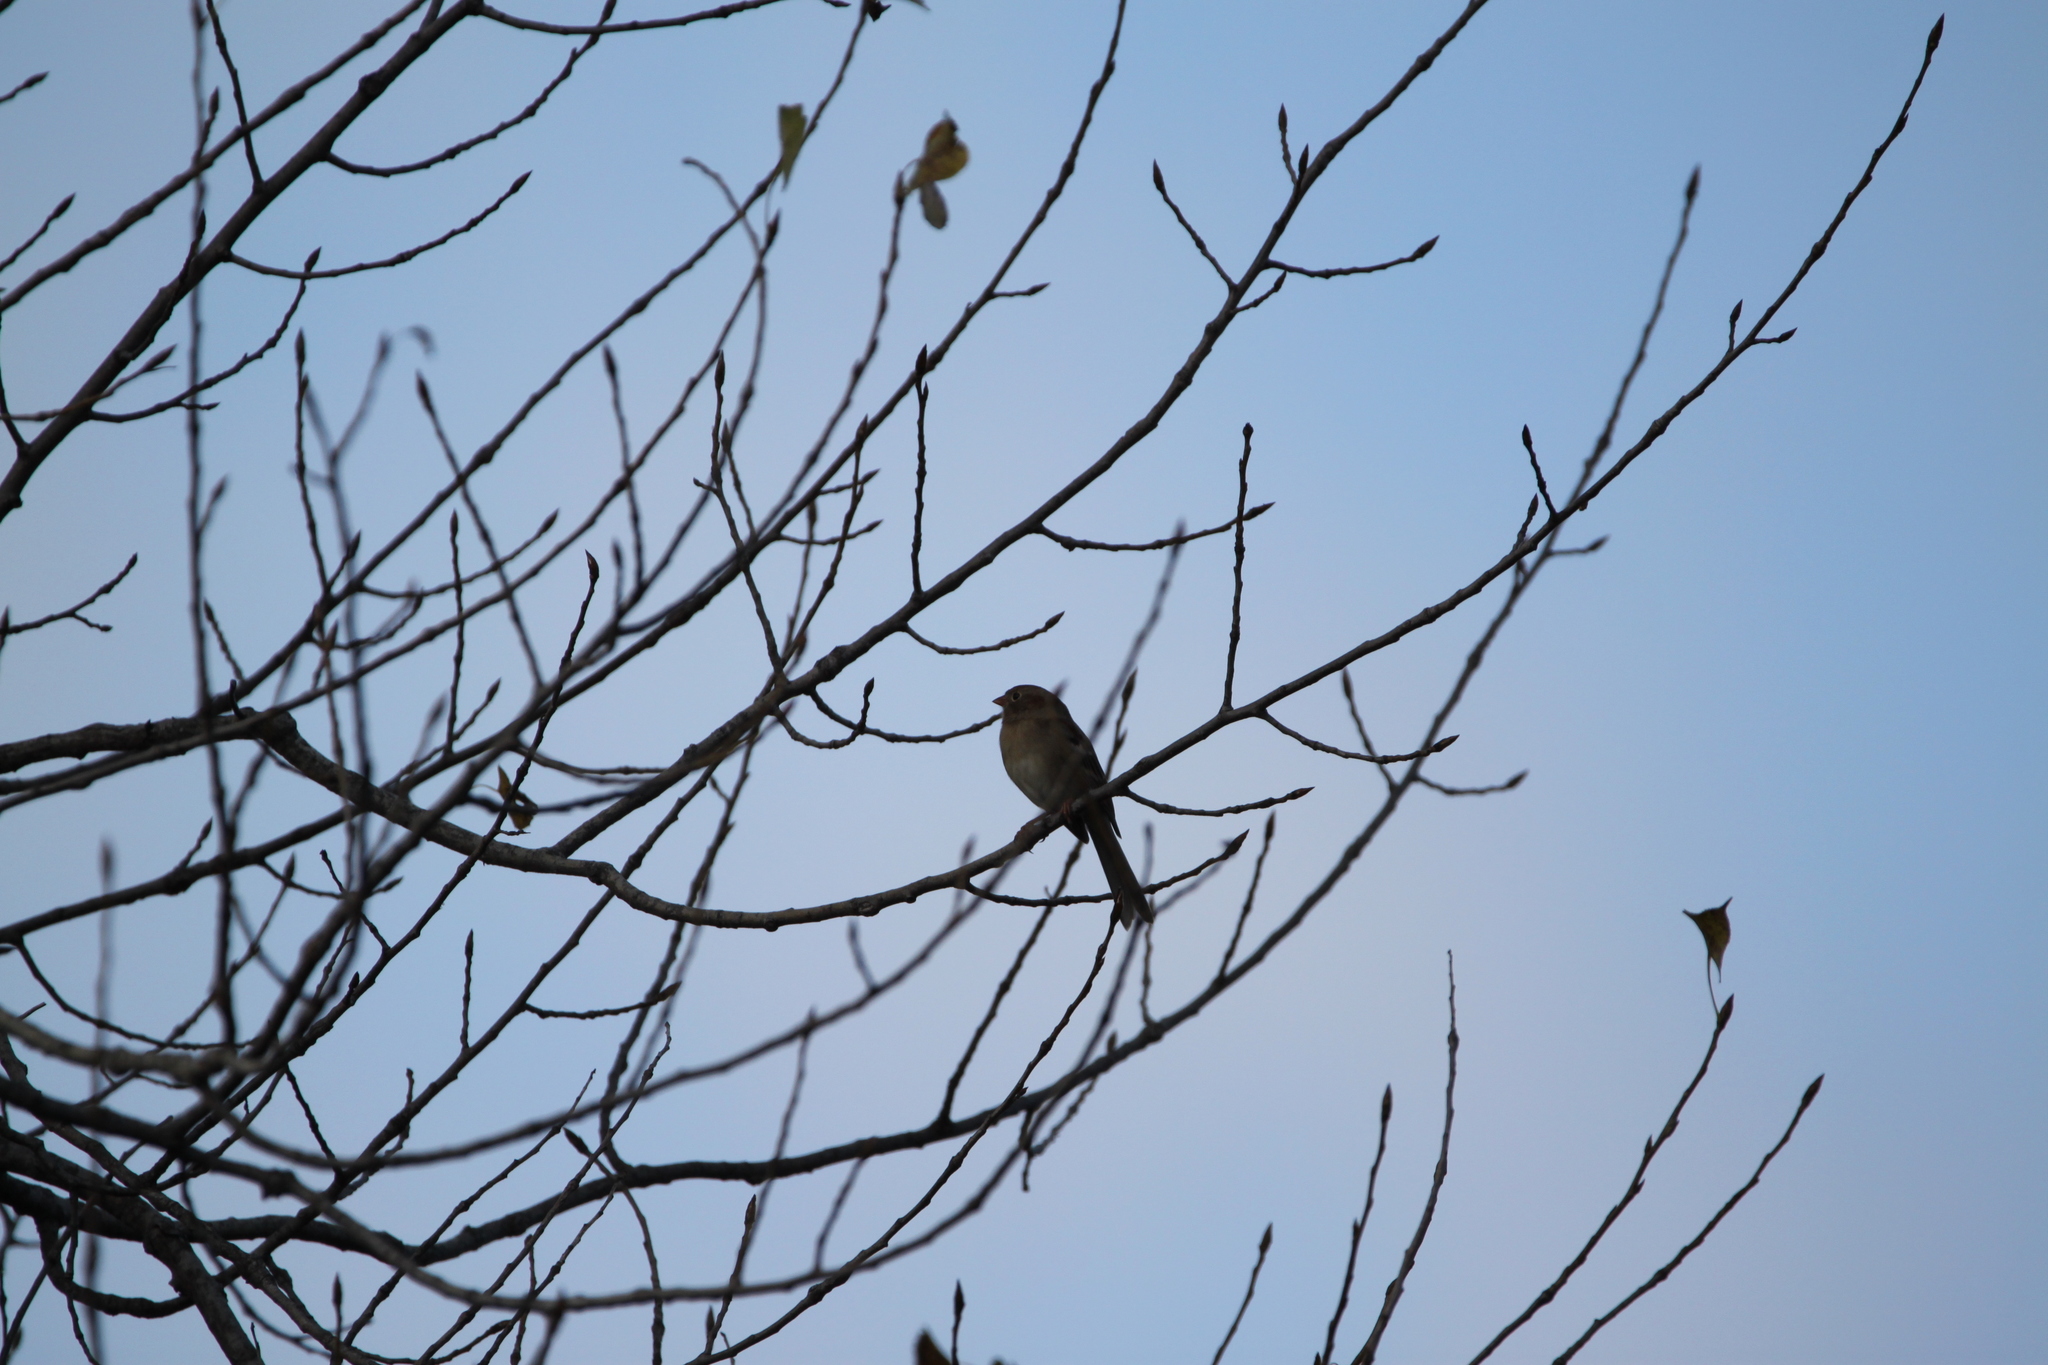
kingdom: Animalia
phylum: Chordata
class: Aves
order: Passeriformes
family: Passerellidae
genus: Spizella
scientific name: Spizella pusilla
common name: Field sparrow
